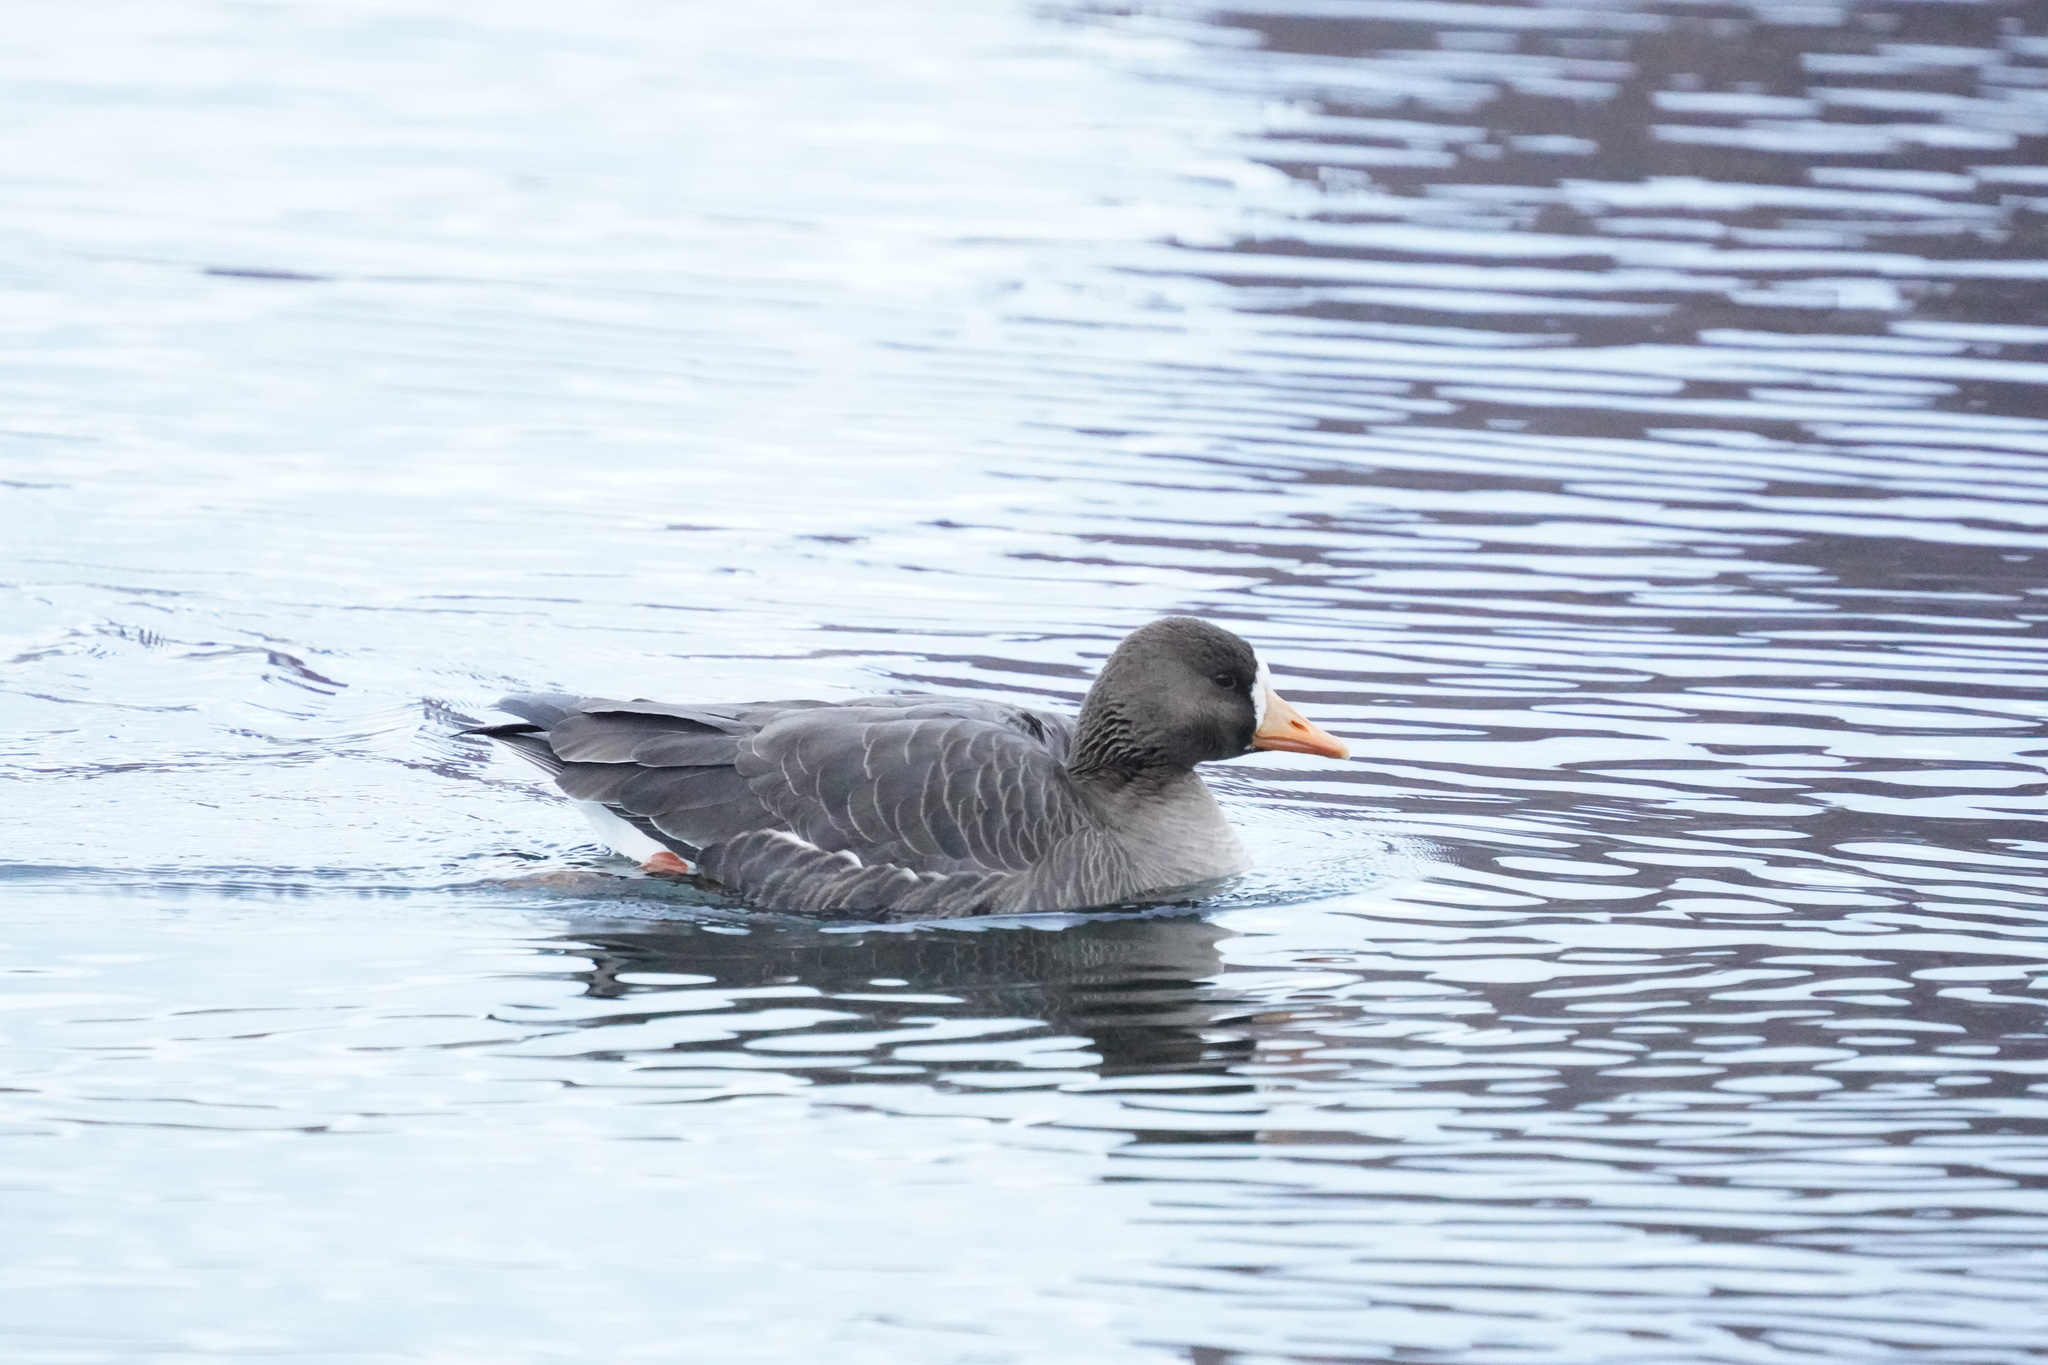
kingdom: Animalia
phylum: Chordata
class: Aves
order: Anseriformes
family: Anatidae
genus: Anser
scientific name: Anser albifrons
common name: Greater white-fronted goose
